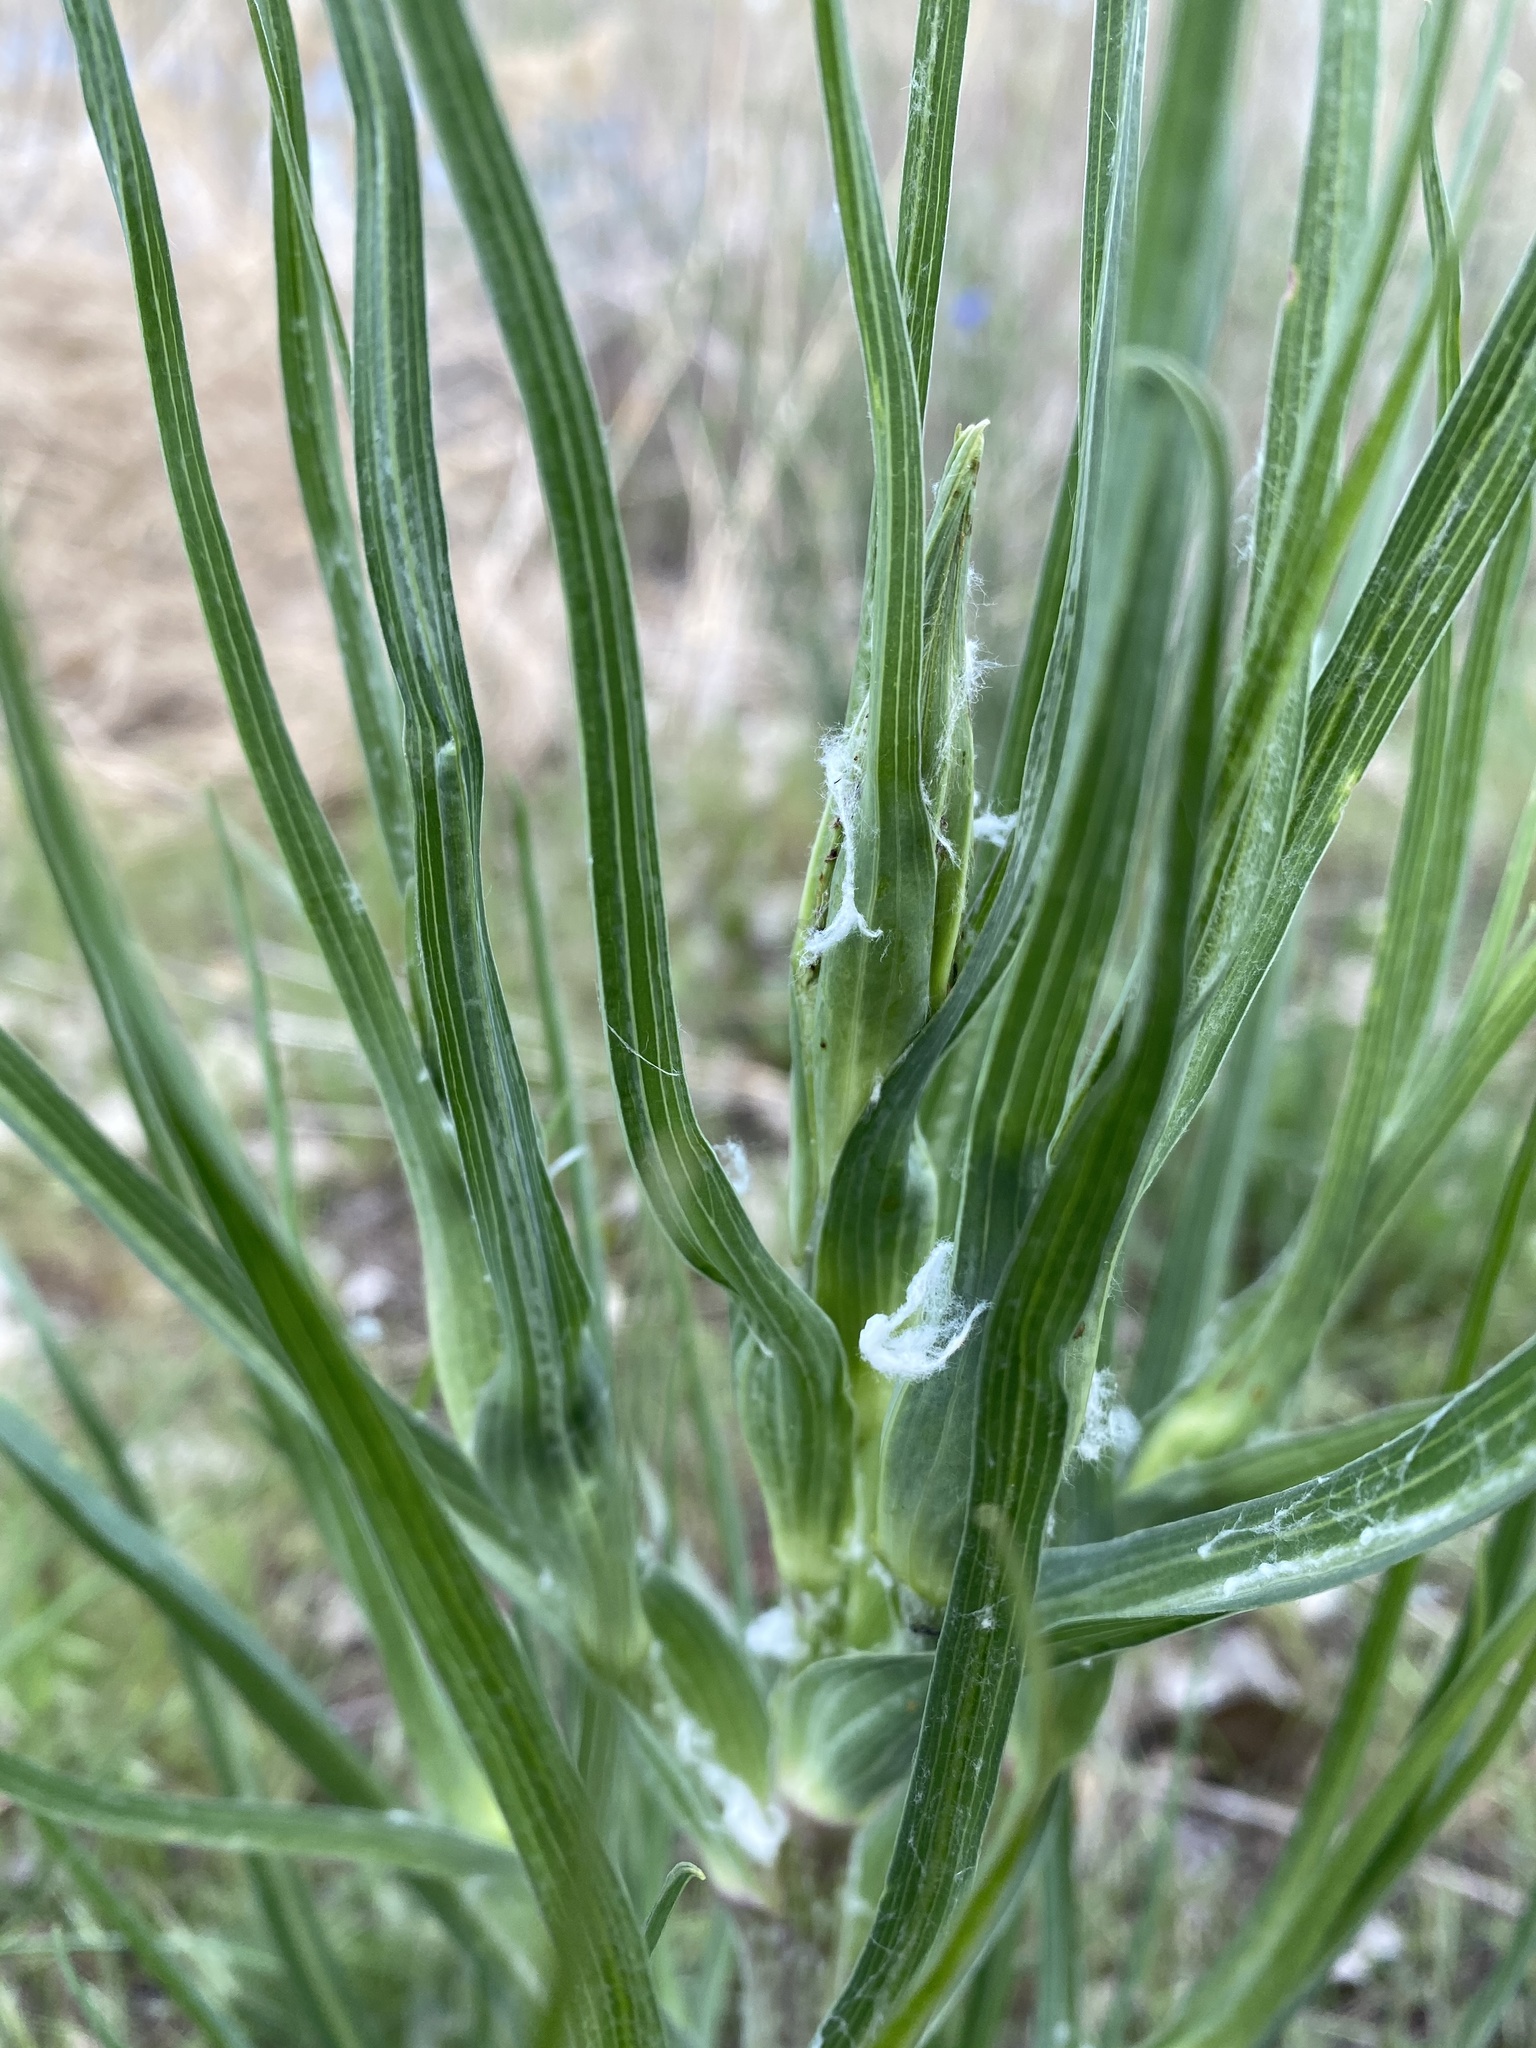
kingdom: Plantae
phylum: Tracheophyta
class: Magnoliopsida
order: Asterales
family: Asteraceae
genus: Tragopogon
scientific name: Tragopogon dubius
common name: Yellow salsify
